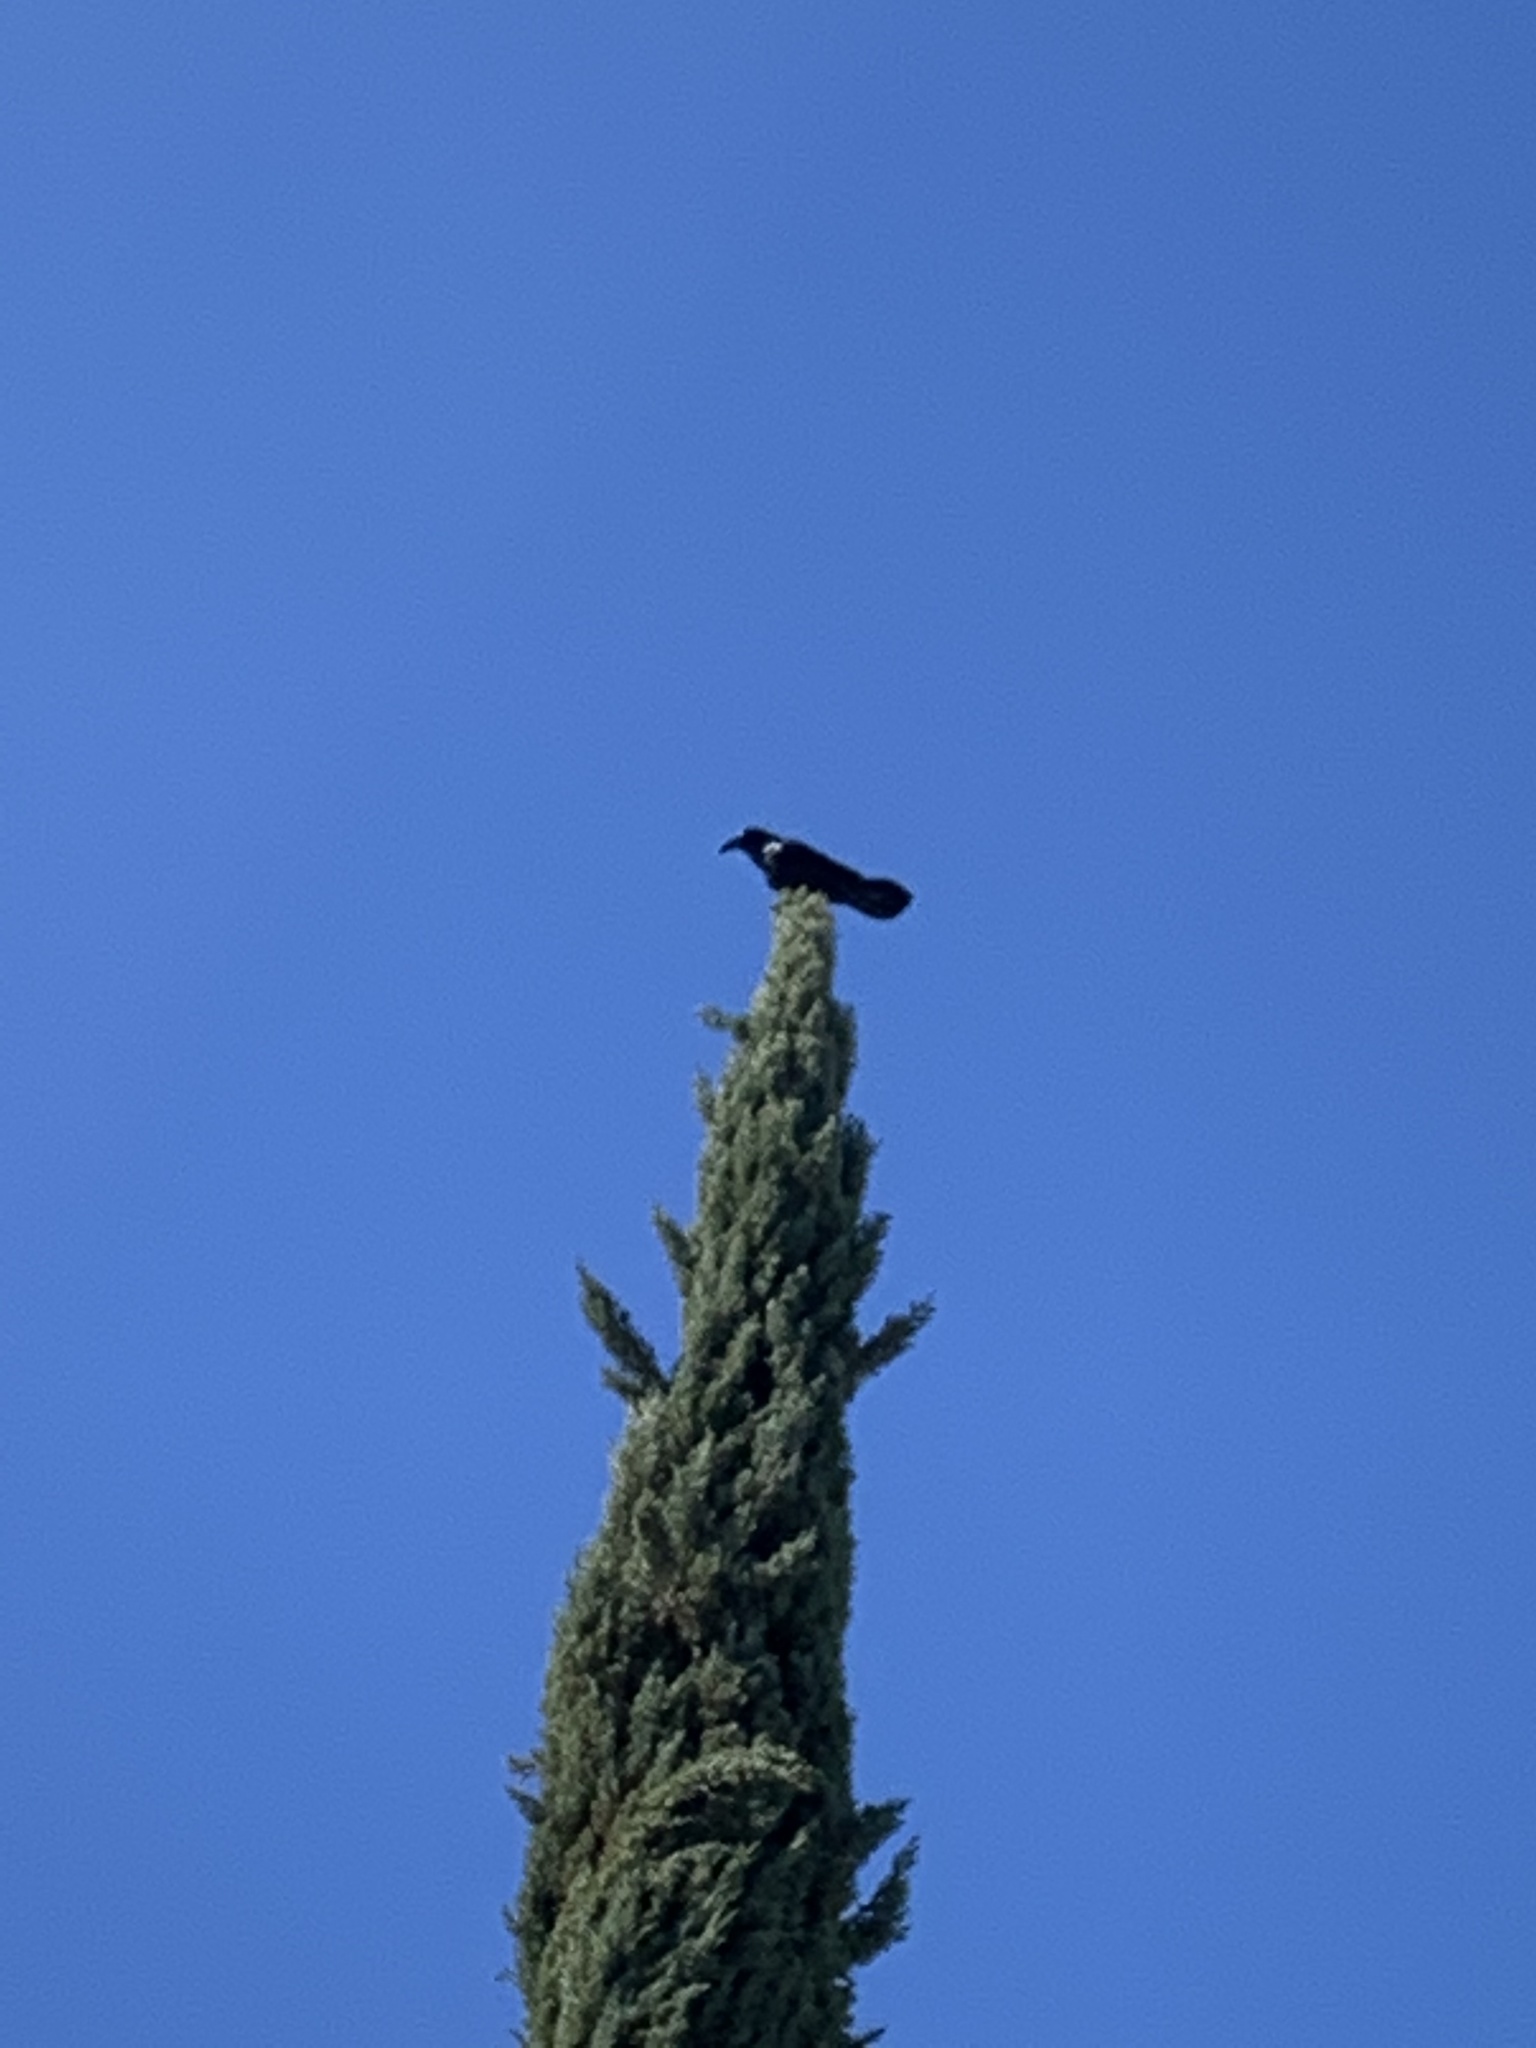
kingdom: Animalia
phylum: Chordata
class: Aves
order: Passeriformes
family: Corvidae
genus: Corvus
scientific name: Corvus corax
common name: Common raven
